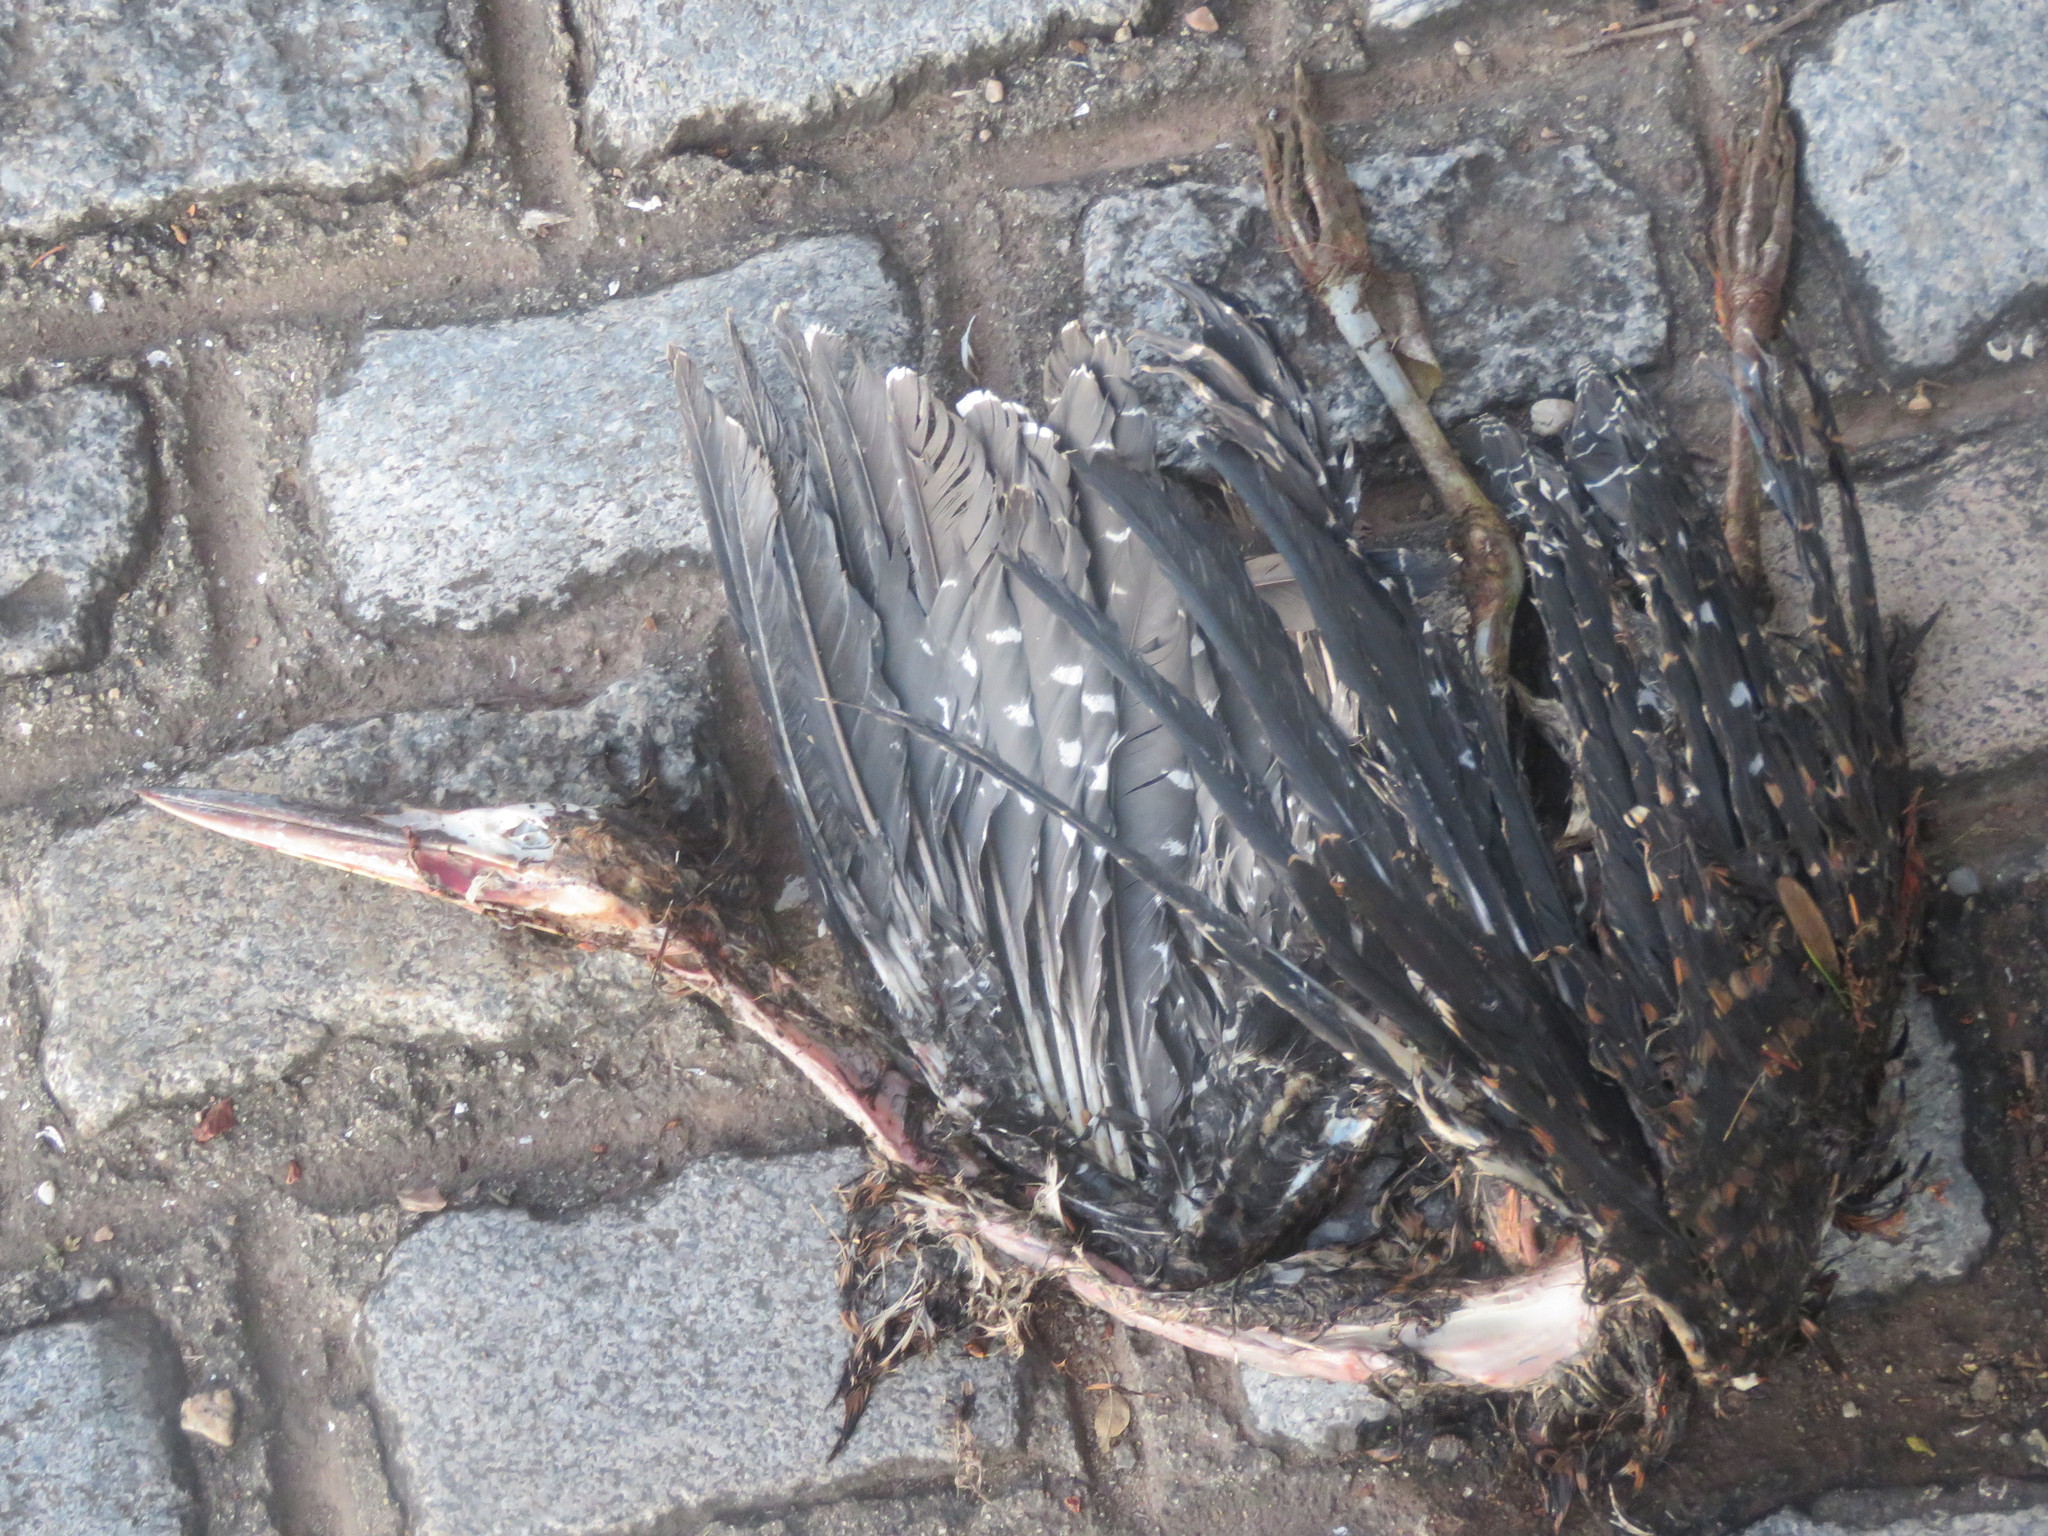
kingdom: Animalia
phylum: Chordata
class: Aves
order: Pelecaniformes
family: Ardeidae
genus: Tigrisoma
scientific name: Tigrisoma lineatum
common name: Rufescent tiger-heron
